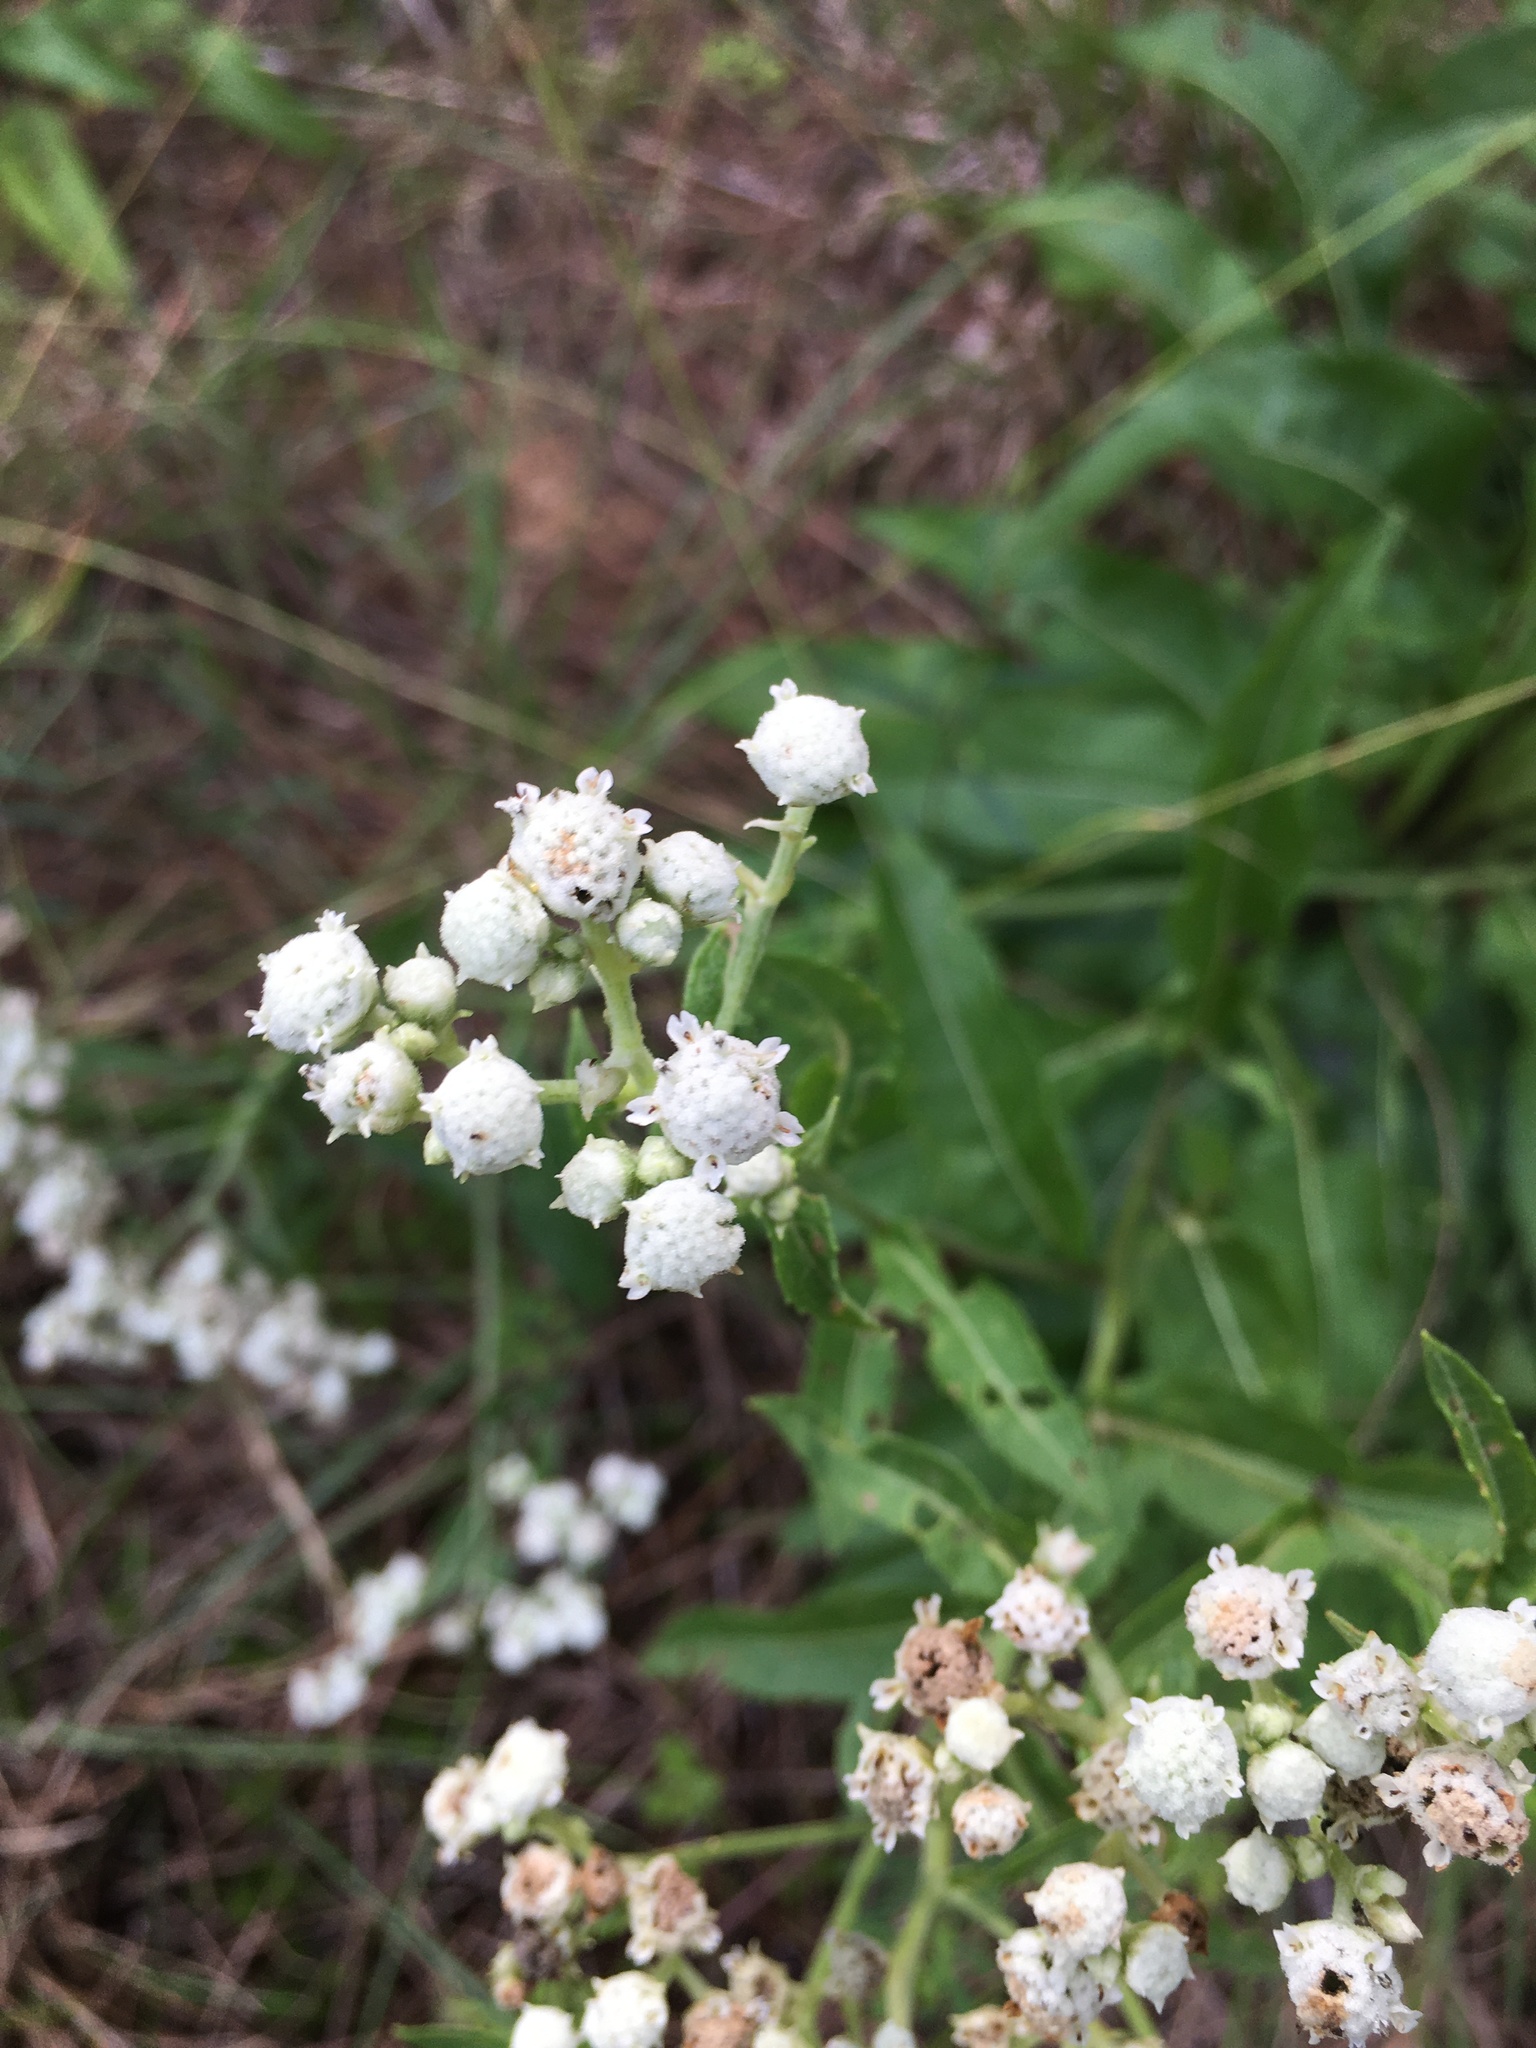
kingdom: Plantae
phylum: Tracheophyta
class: Magnoliopsida
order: Asterales
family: Asteraceae
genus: Parthenium
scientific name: Parthenium integrifolium
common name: American feverfew
